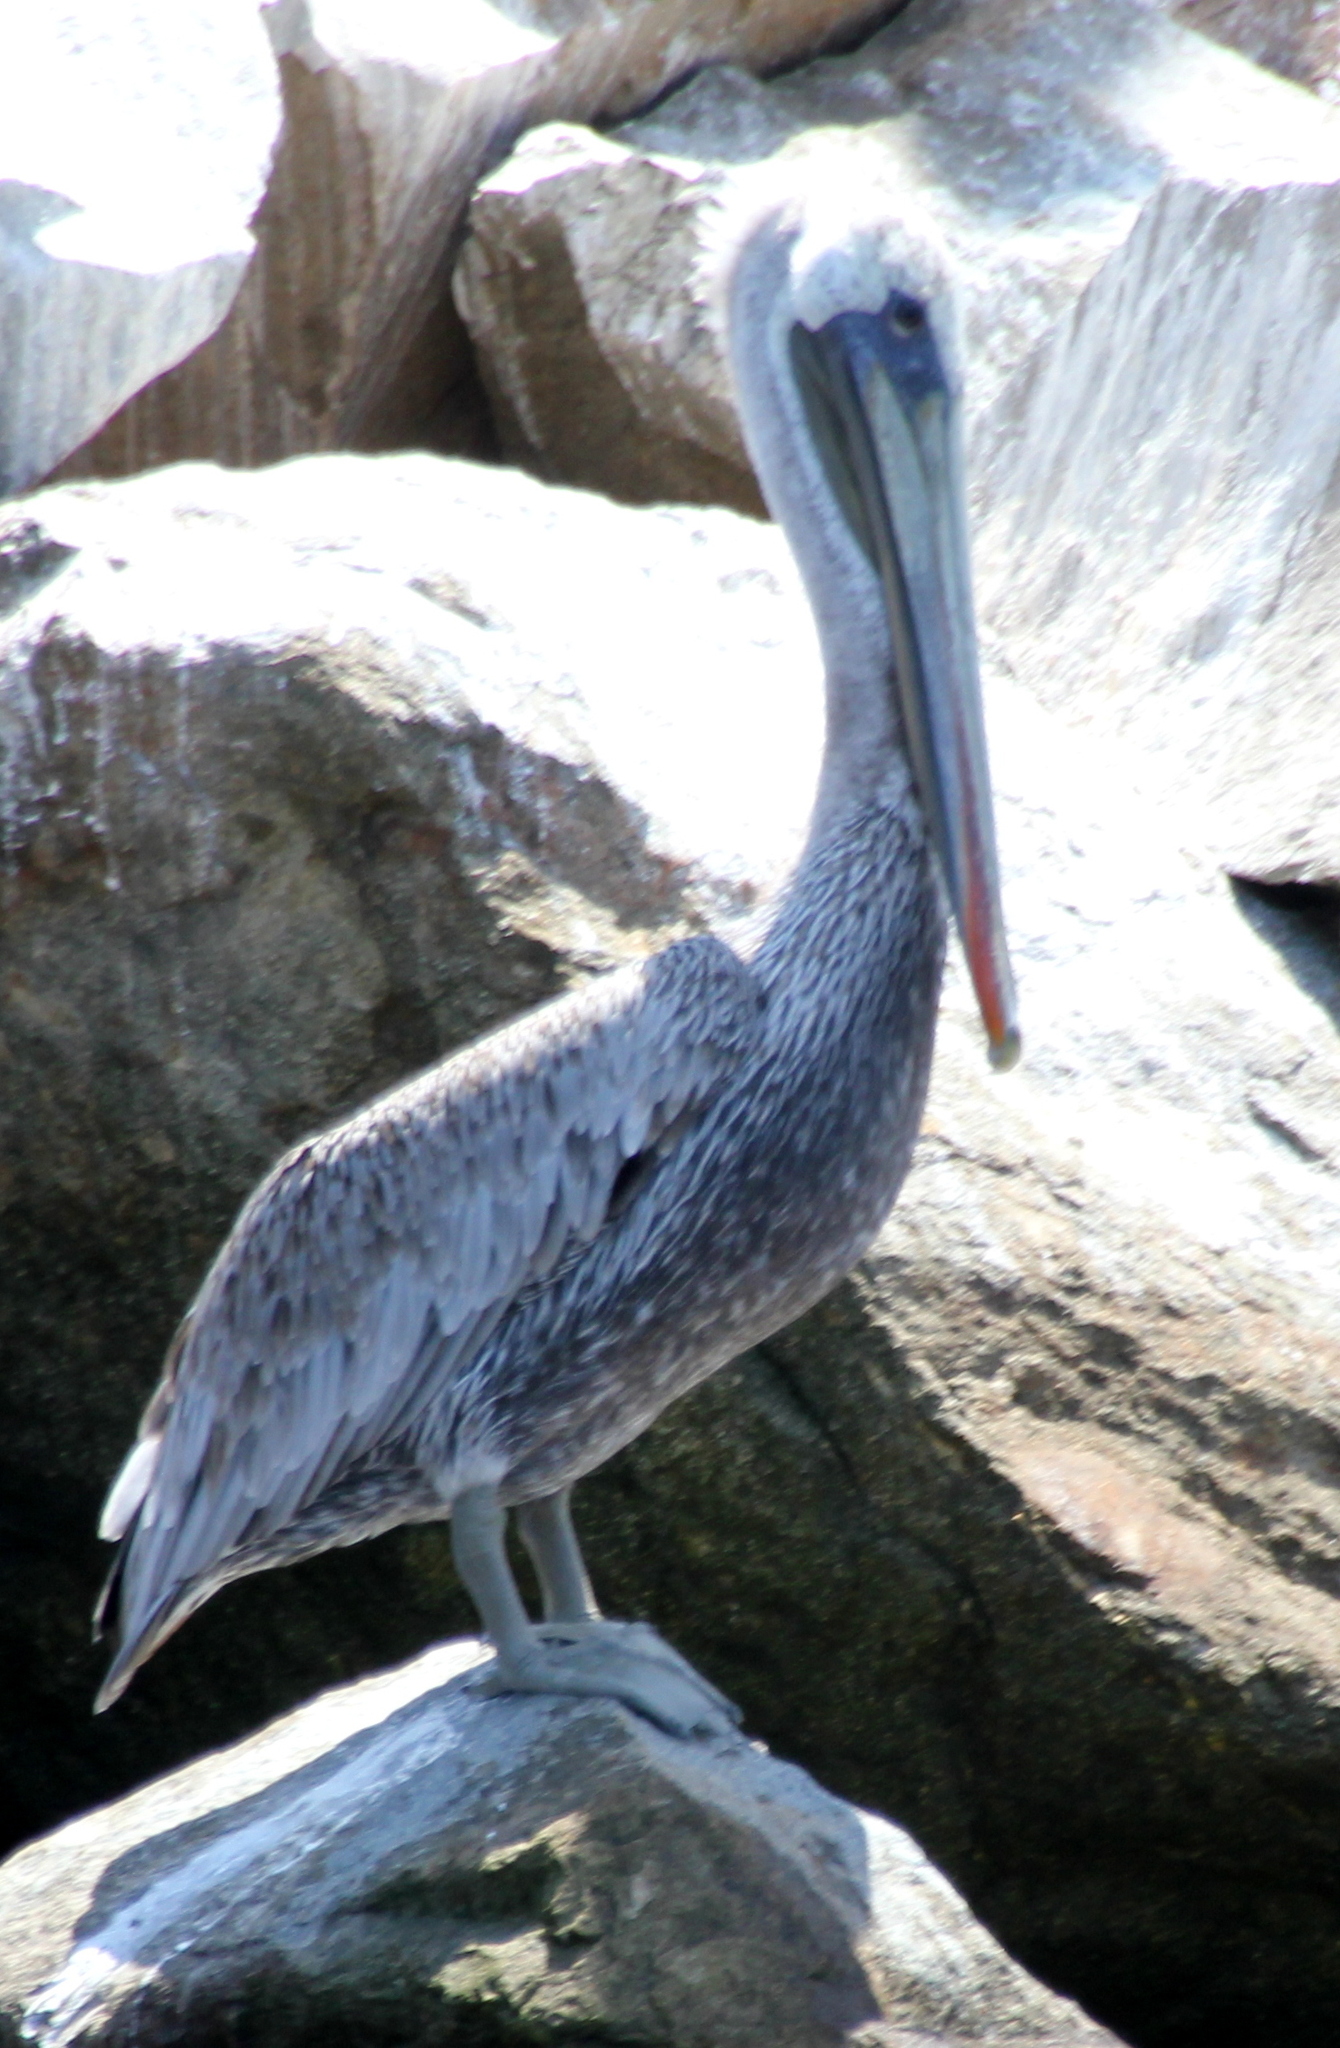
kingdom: Animalia
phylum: Chordata
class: Aves
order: Pelecaniformes
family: Pelecanidae
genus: Pelecanus
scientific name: Pelecanus occidentalis
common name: Brown pelican
